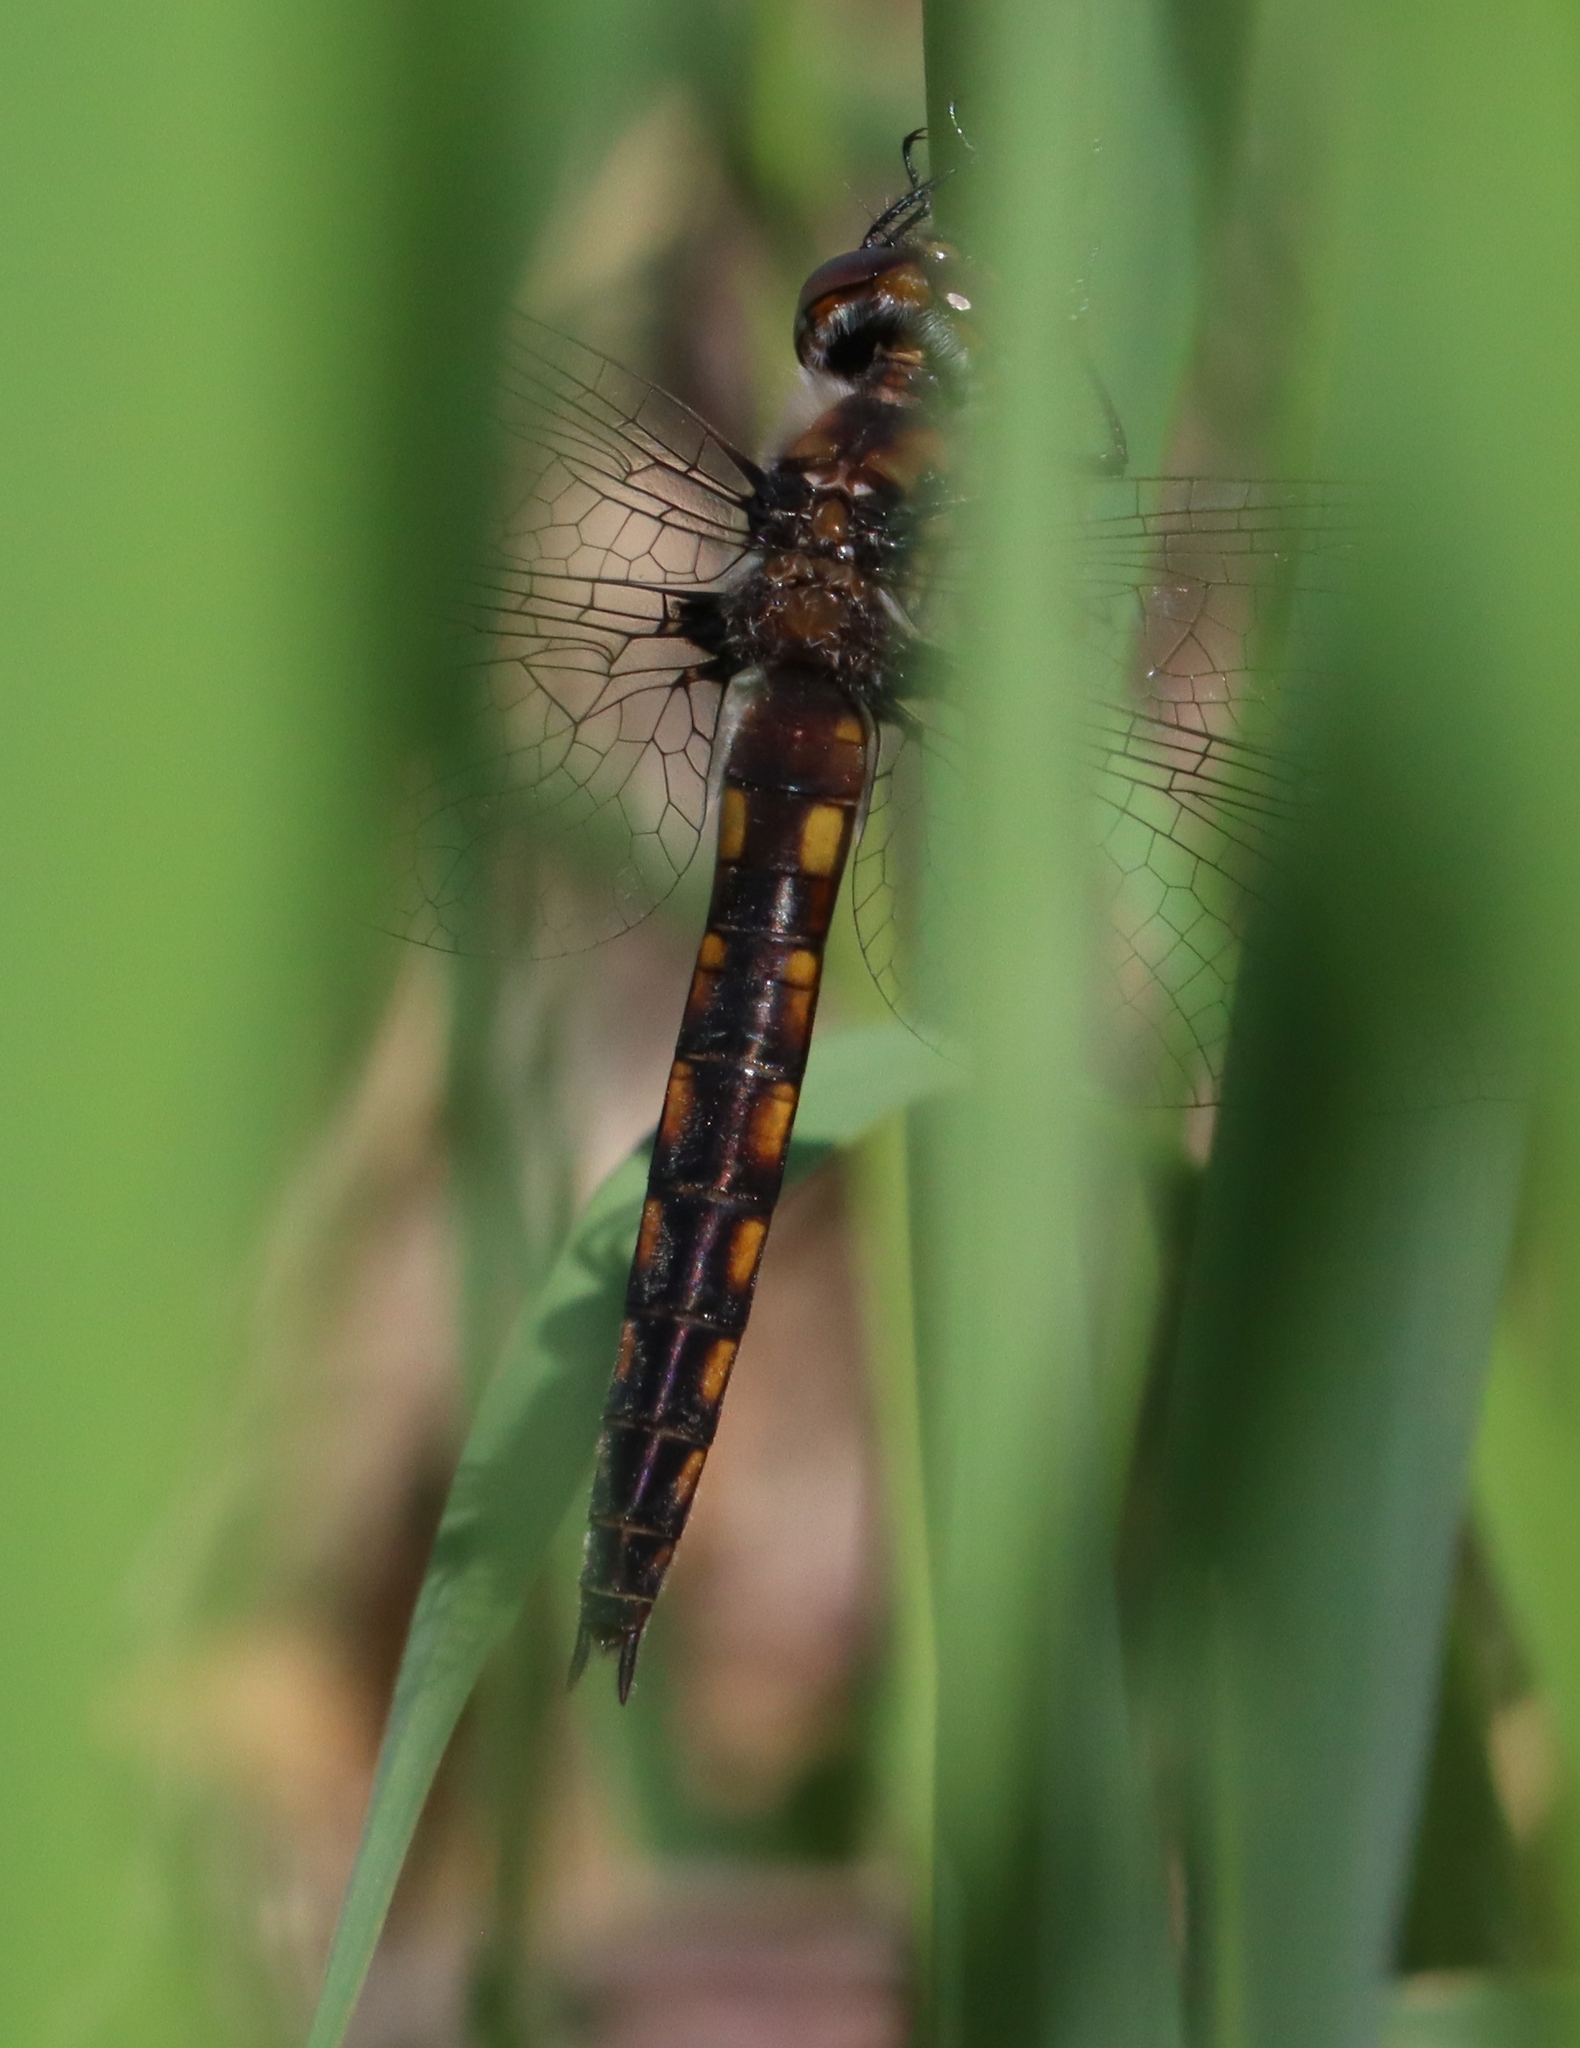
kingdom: Animalia
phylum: Arthropoda
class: Insecta
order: Odonata
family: Corduliidae
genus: Epitheca
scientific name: Epitheca cynosura
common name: Common baskettail
